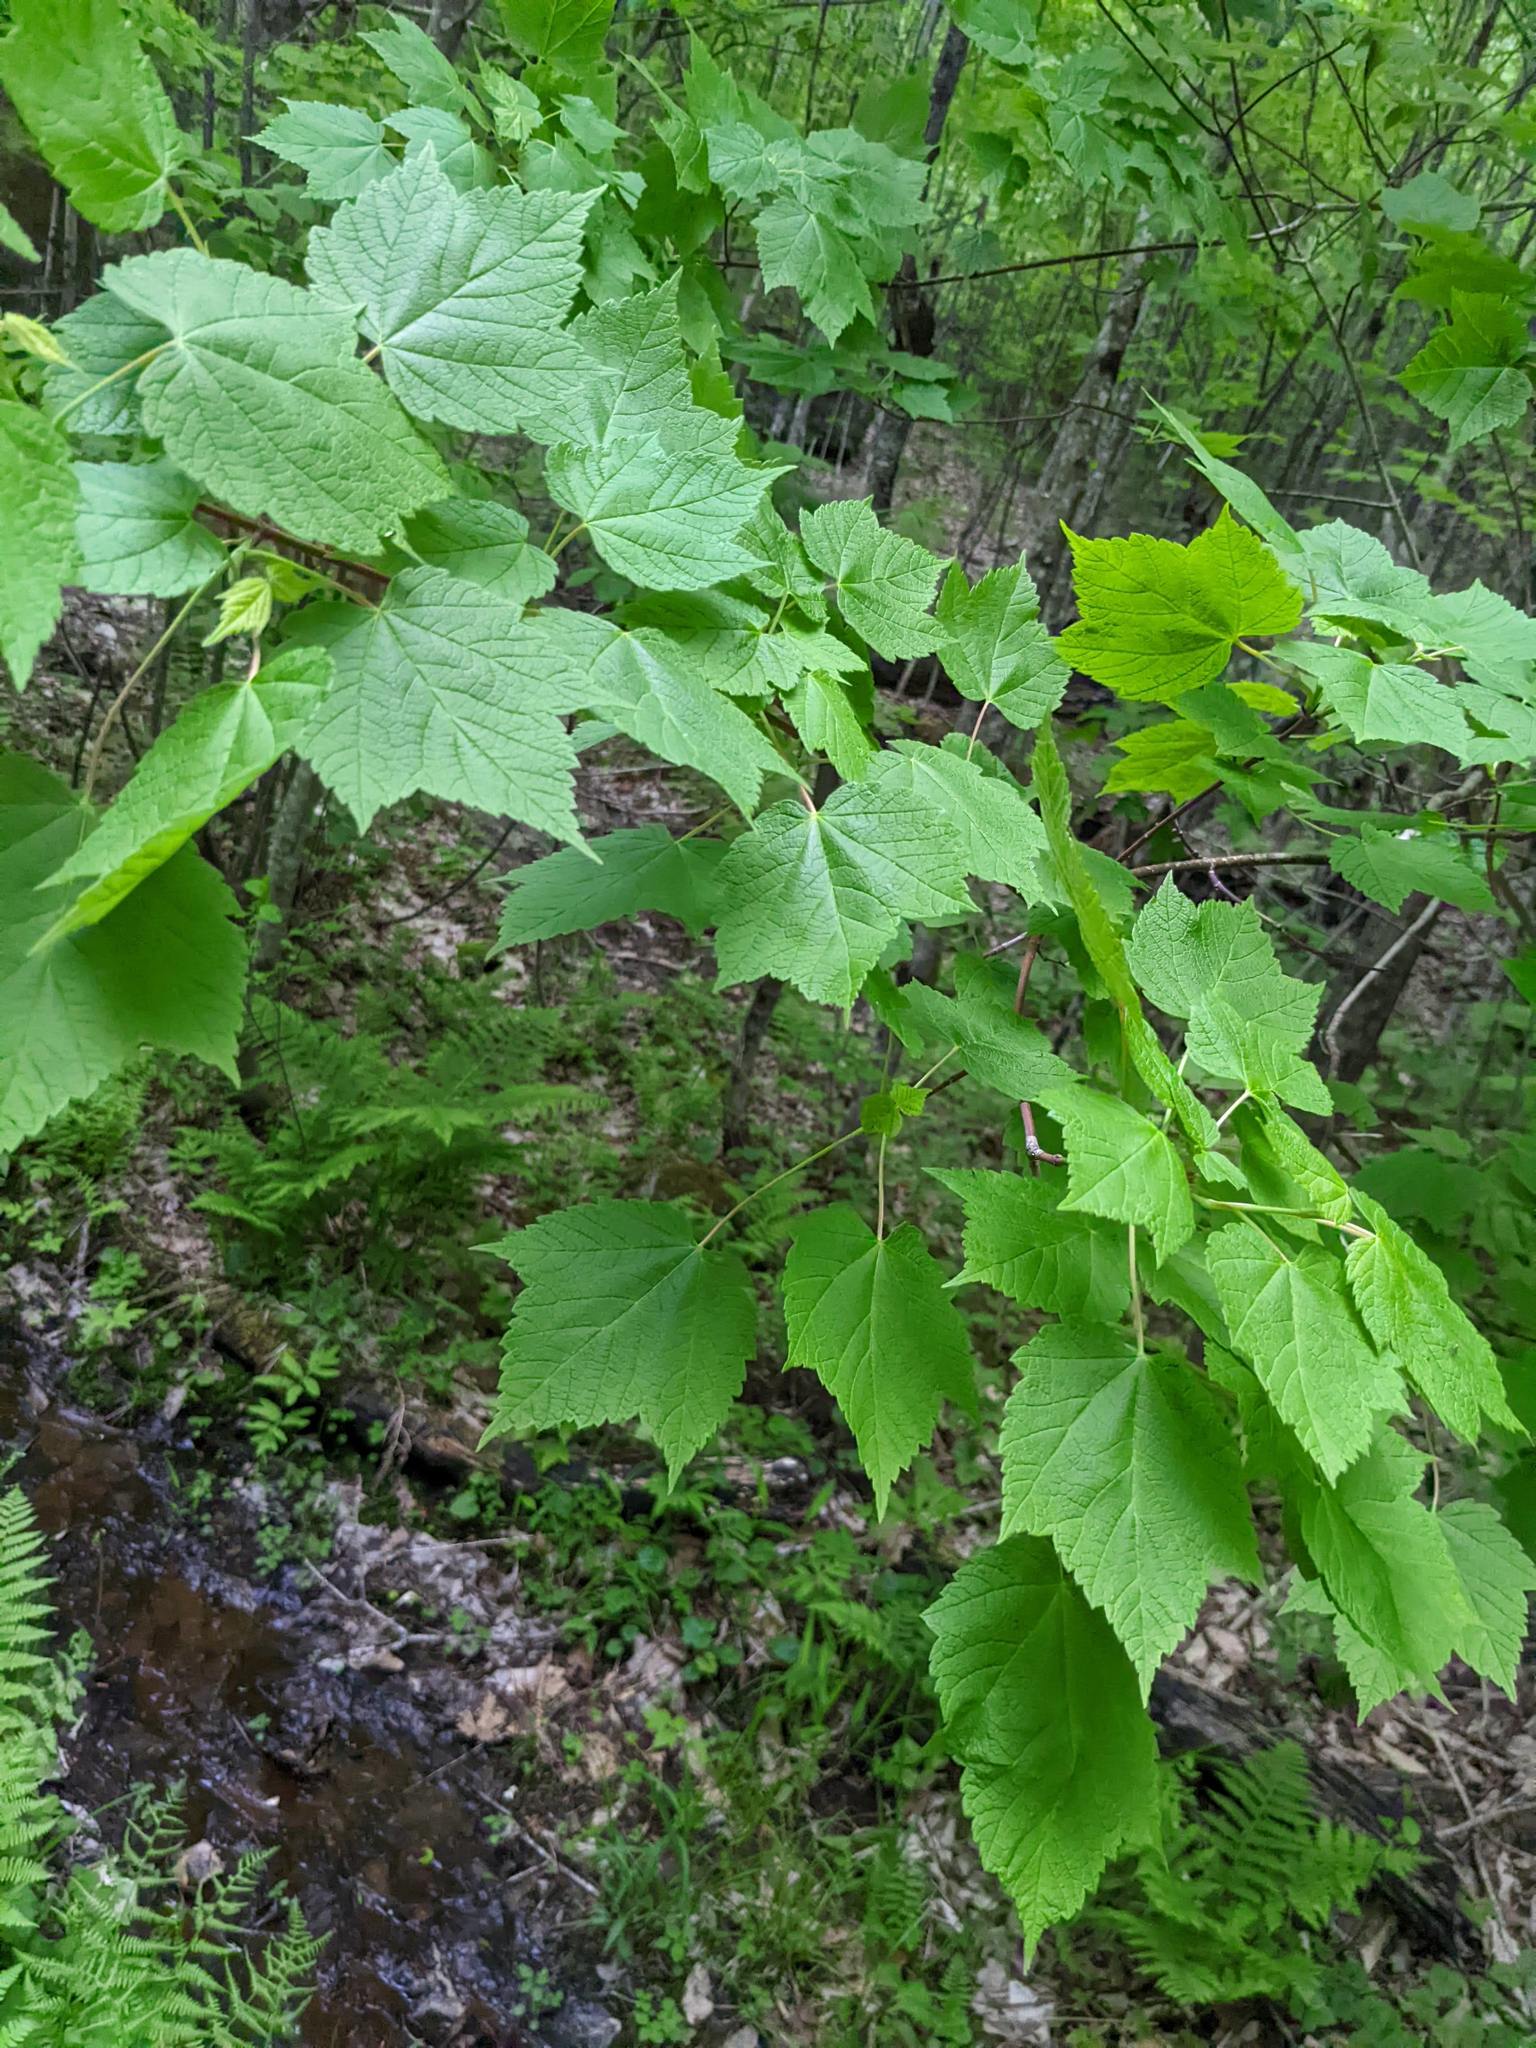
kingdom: Plantae
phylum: Tracheophyta
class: Magnoliopsida
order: Sapindales
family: Sapindaceae
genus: Acer
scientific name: Acer spicatum
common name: Mountain maple
